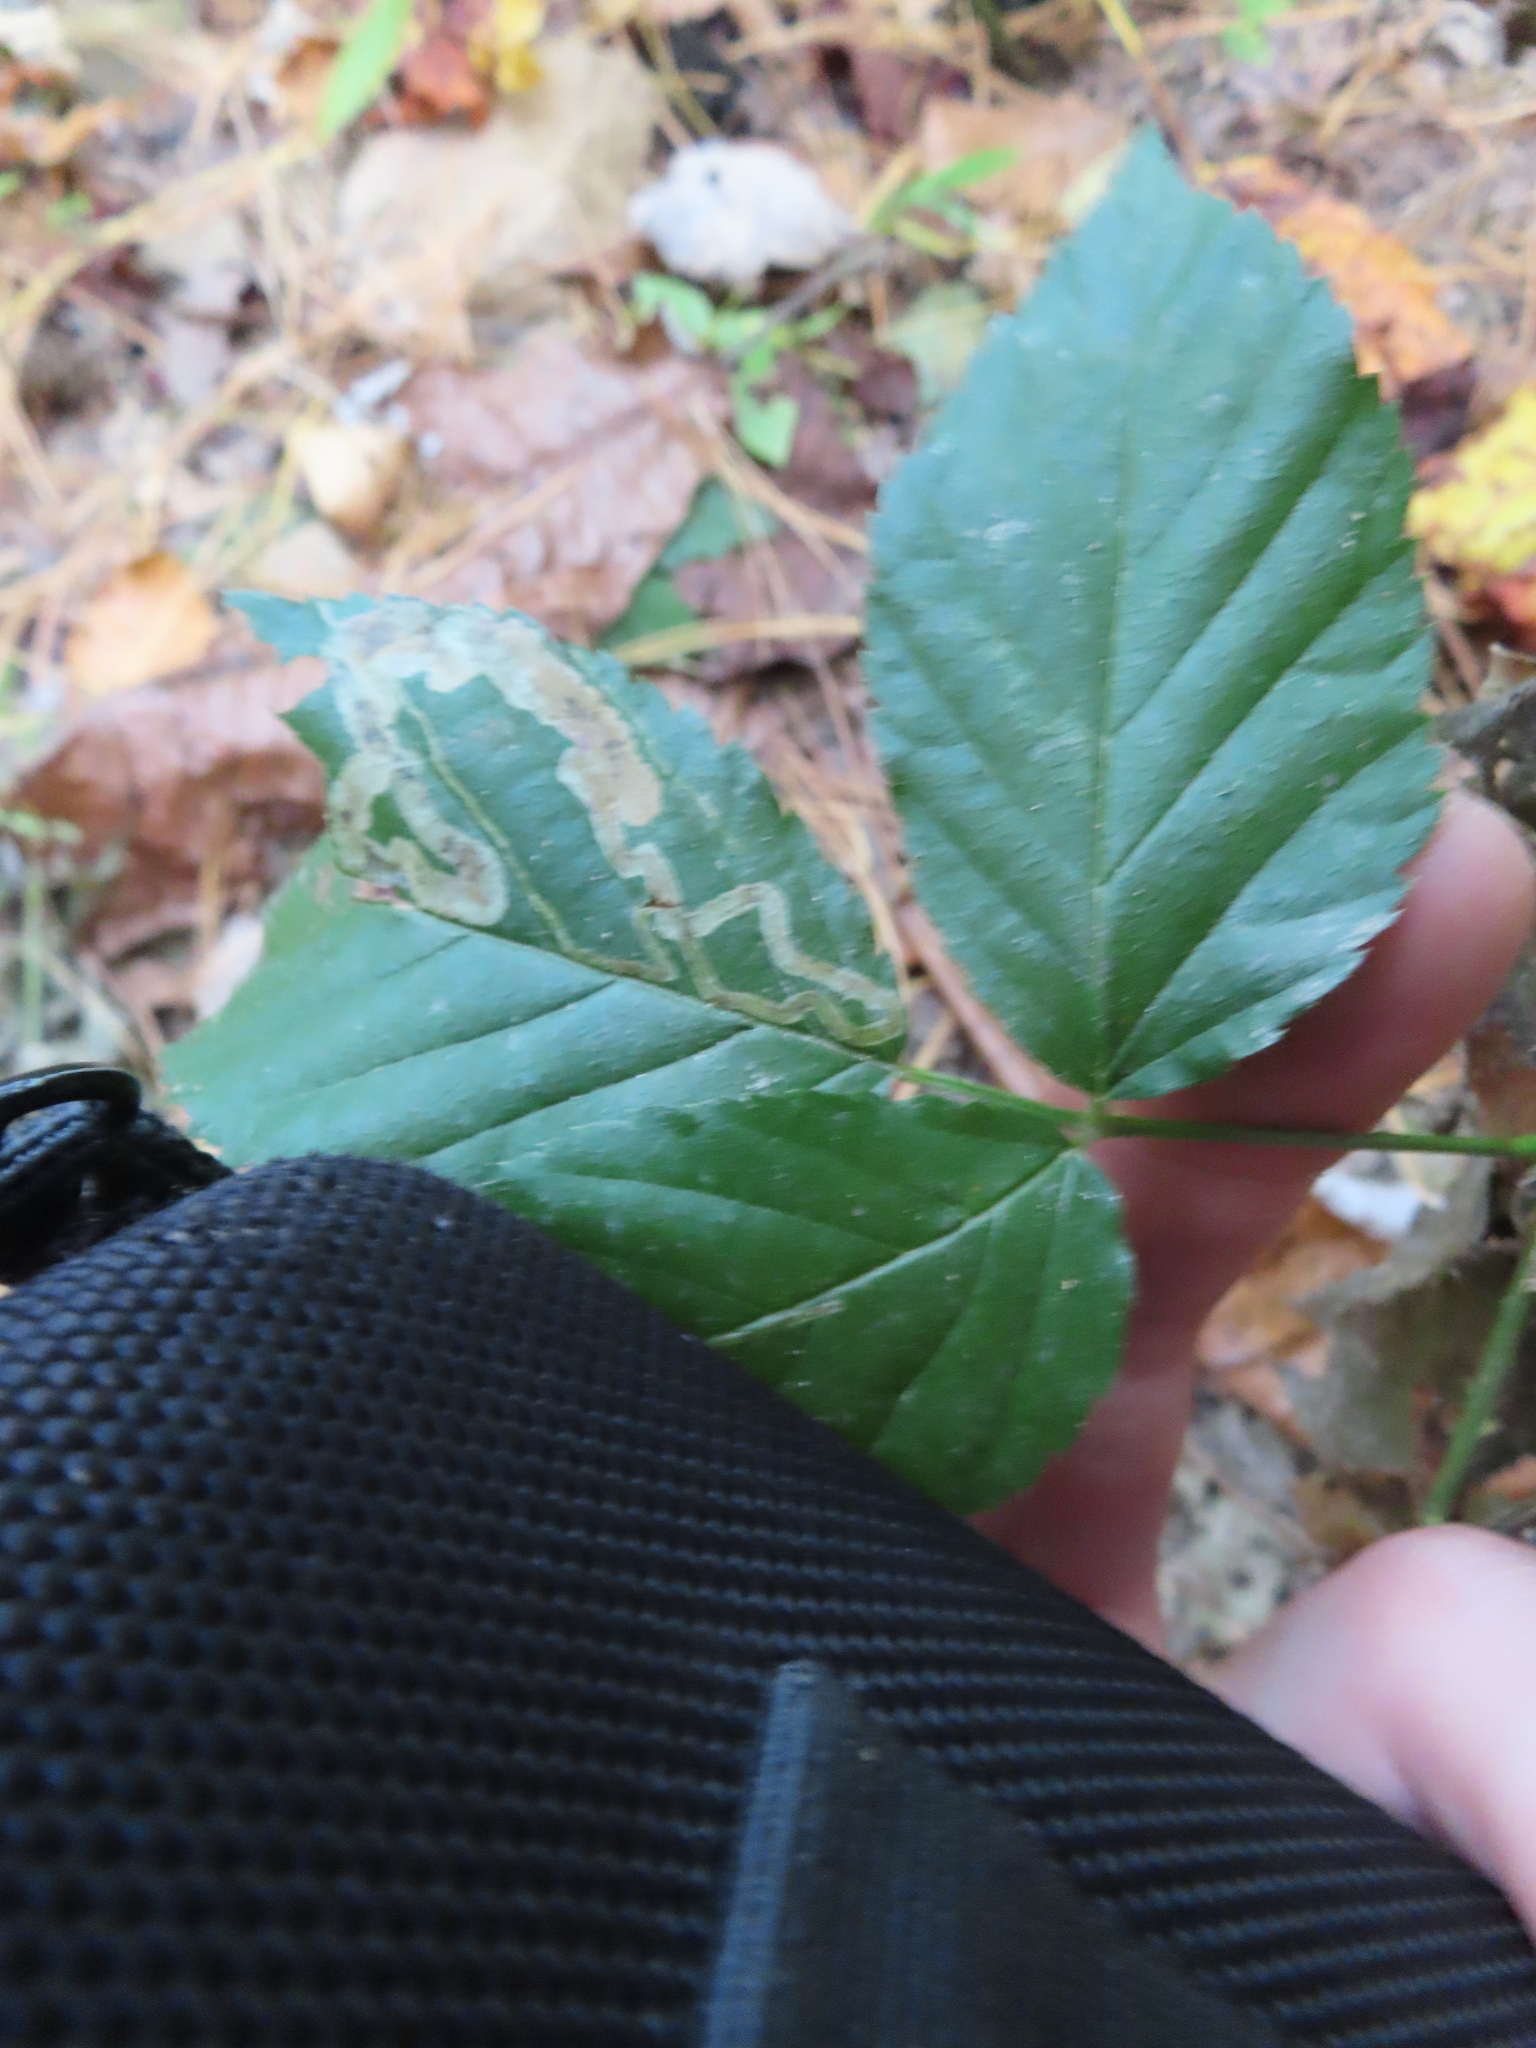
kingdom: Animalia
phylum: Arthropoda
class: Insecta
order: Diptera
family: Agromyzidae
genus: Agromyza
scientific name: Agromyza vockerothi
